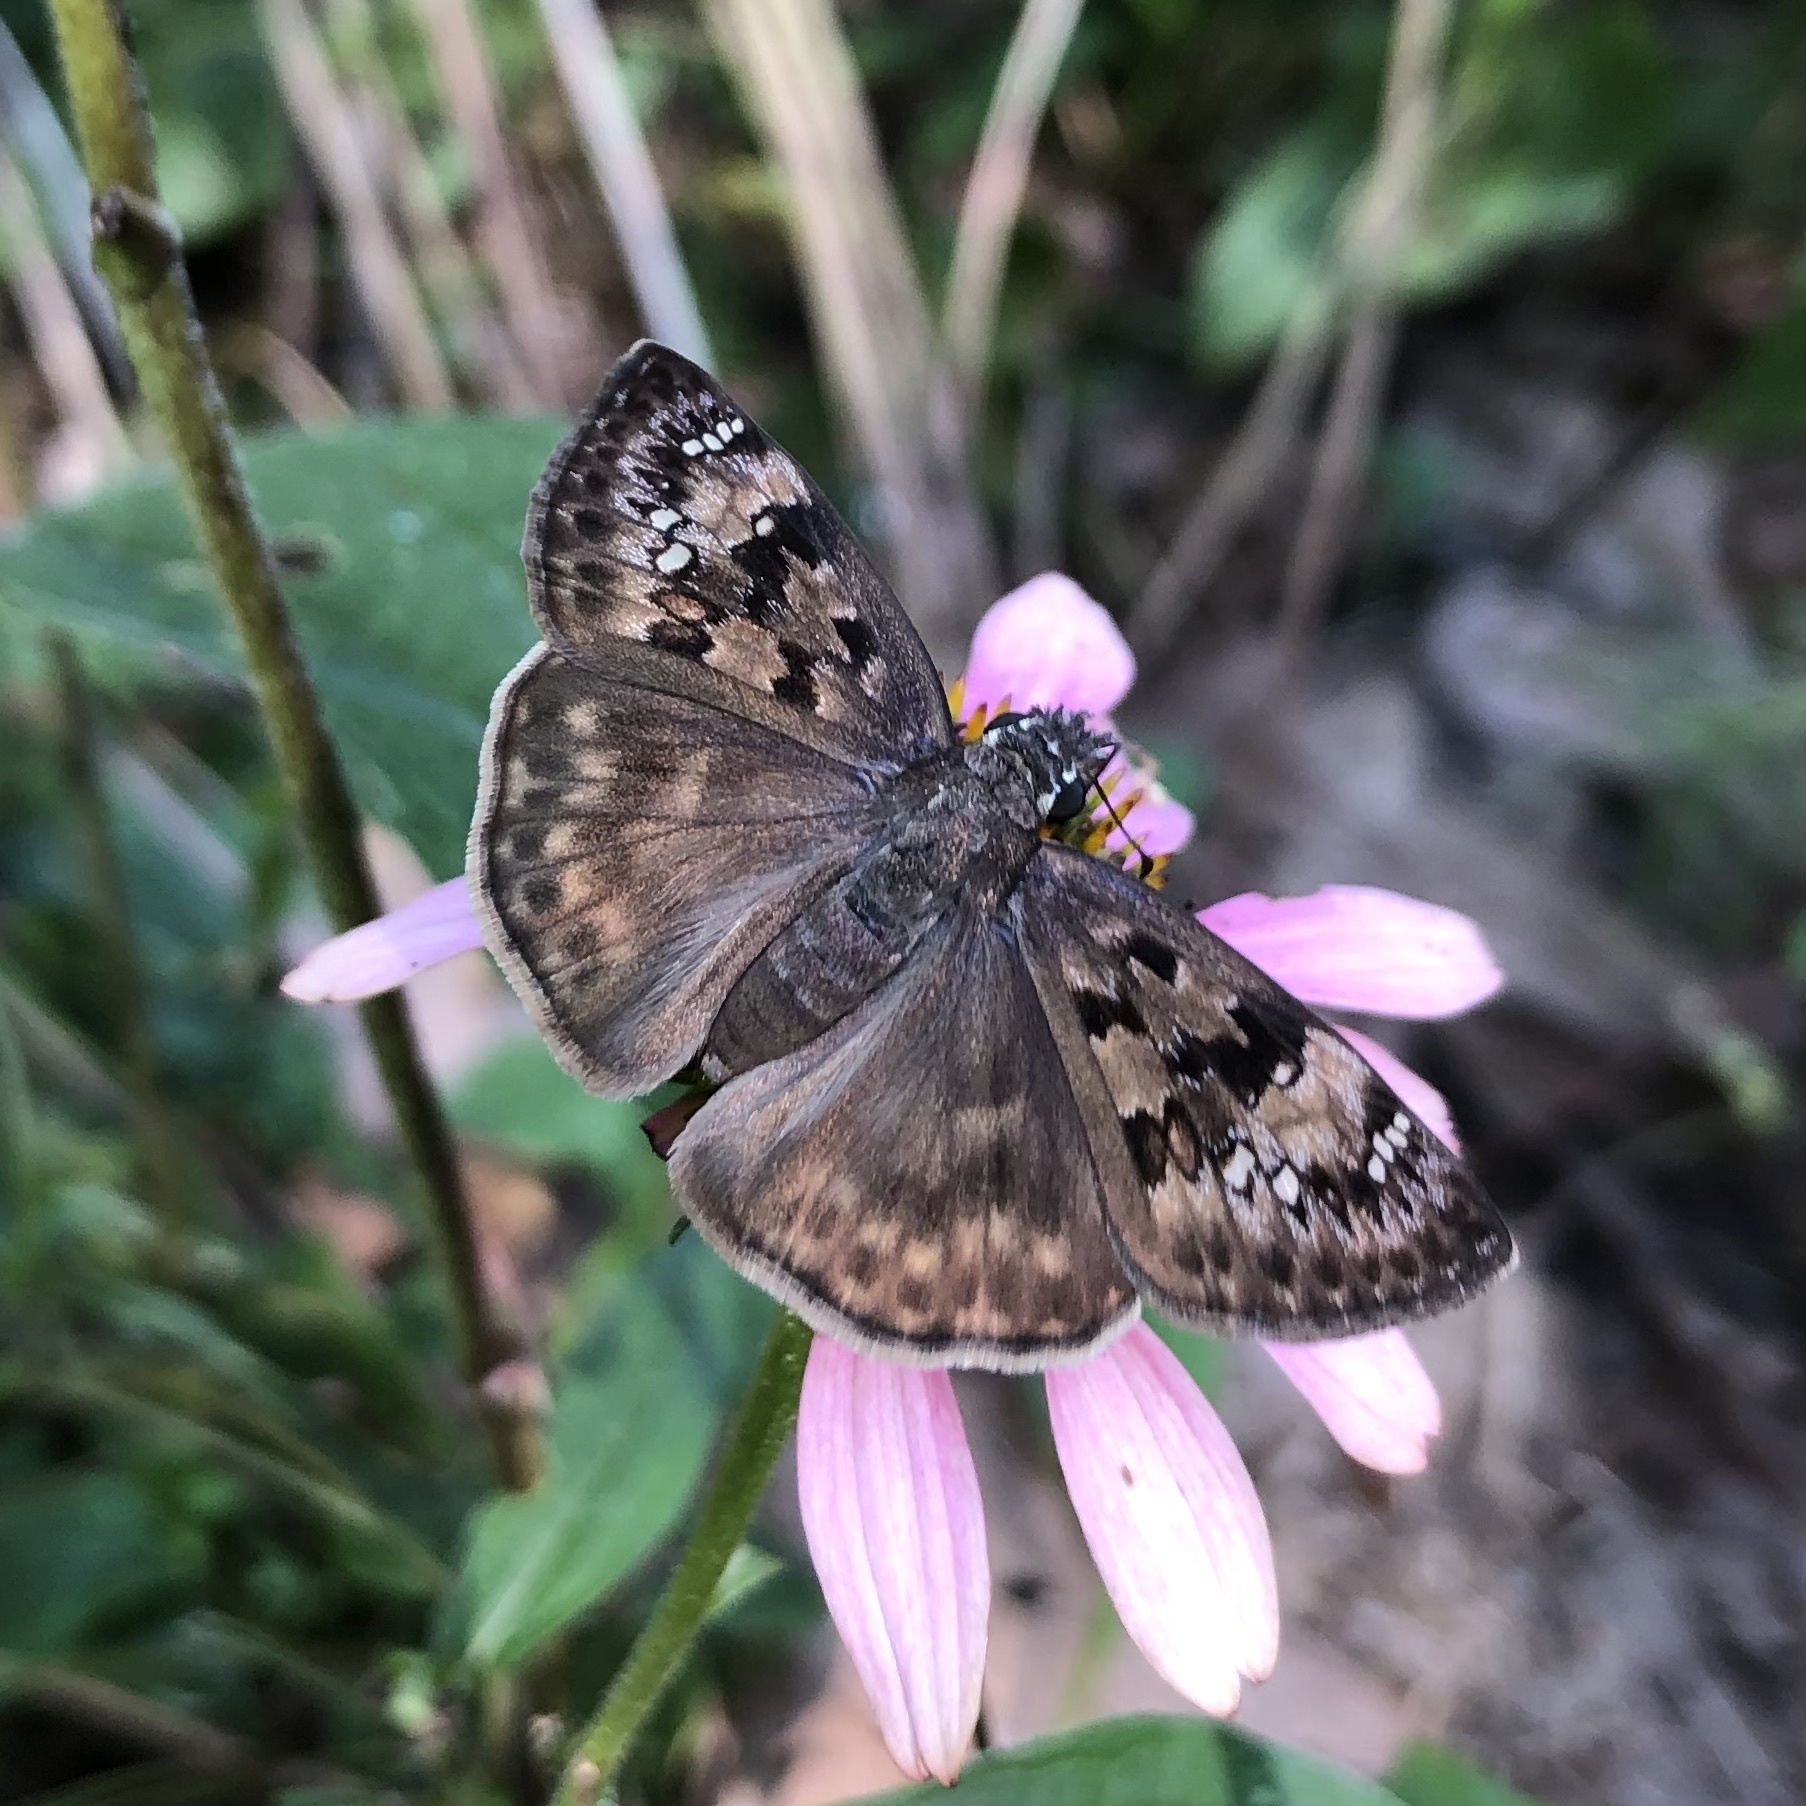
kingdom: Animalia
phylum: Arthropoda
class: Insecta
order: Lepidoptera
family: Hesperiidae
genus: Erynnis
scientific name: Erynnis horatius
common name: Horace's duskywing
